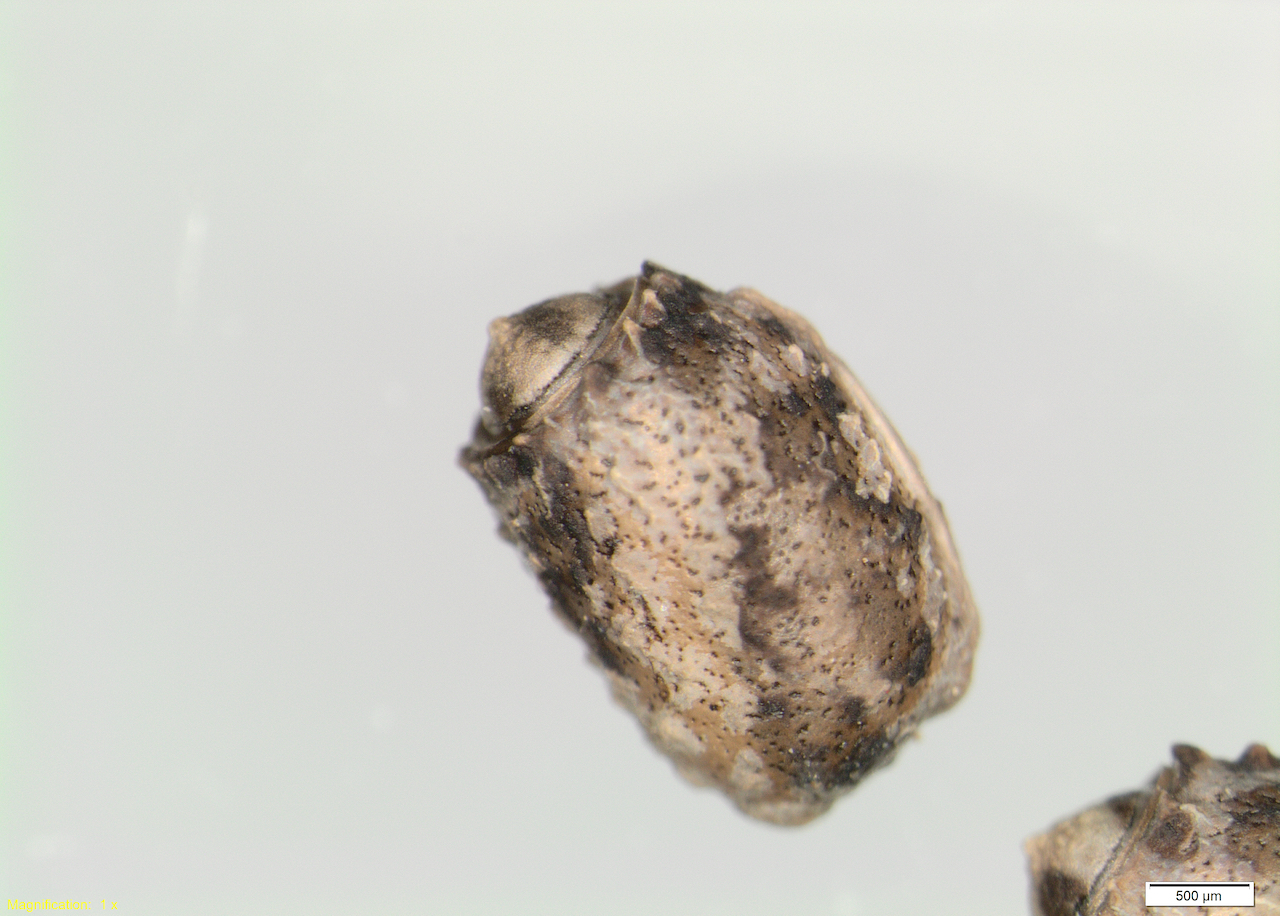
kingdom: Animalia
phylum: Arthropoda
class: Insecta
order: Phasmida
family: Phasmatidae
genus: Clitarchus
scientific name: Clitarchus hookeri
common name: Smooth stick insect
